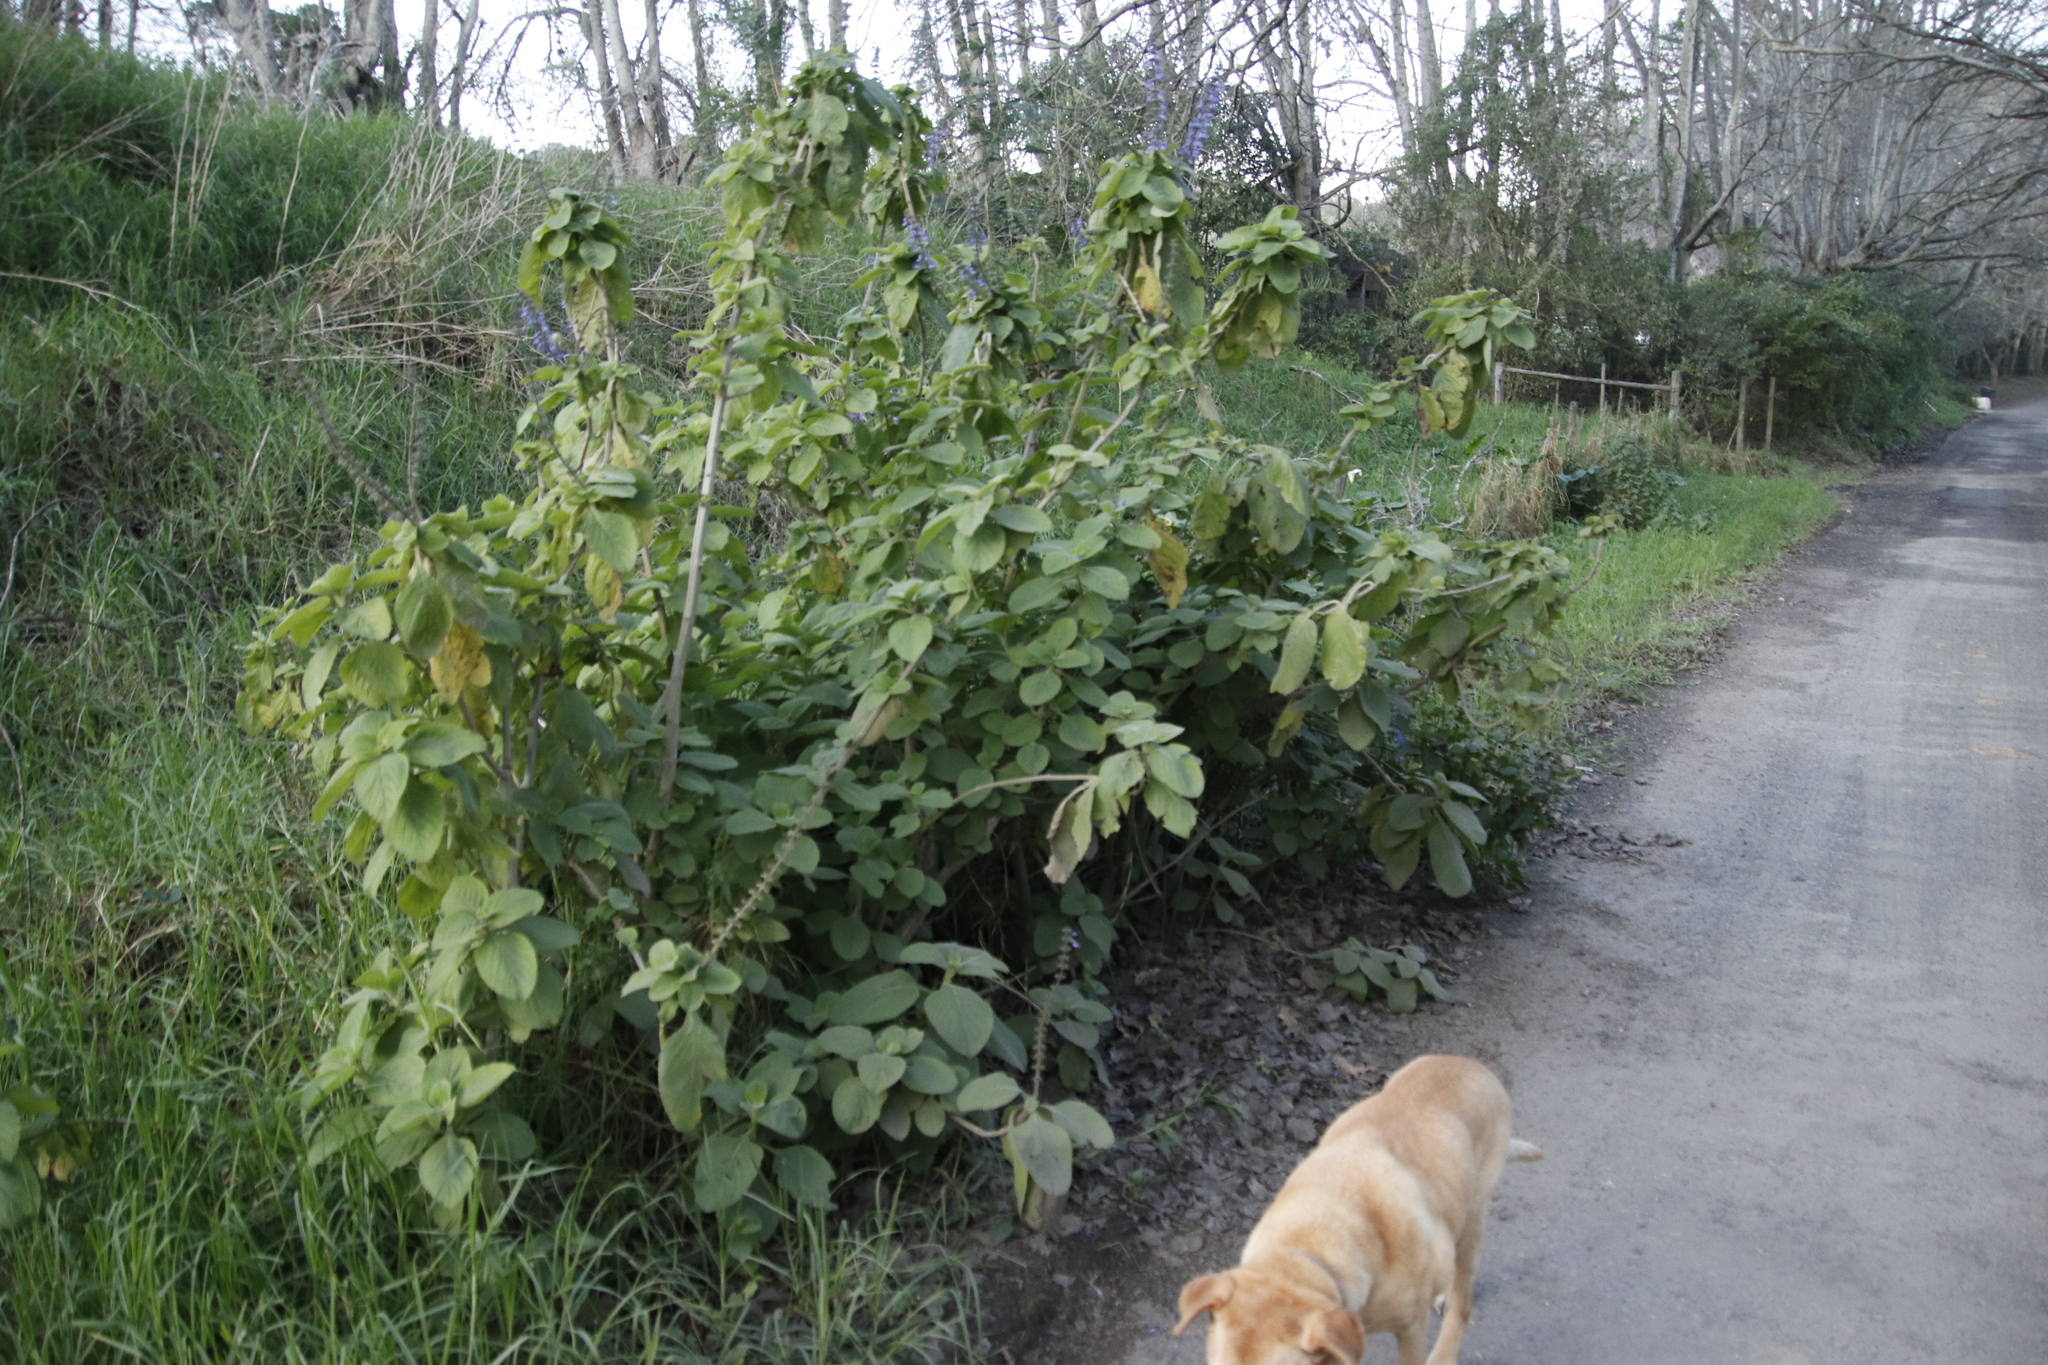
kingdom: Plantae
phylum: Tracheophyta
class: Magnoliopsida
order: Lamiales
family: Lamiaceae
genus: Coleus
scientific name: Coleus barbatus
